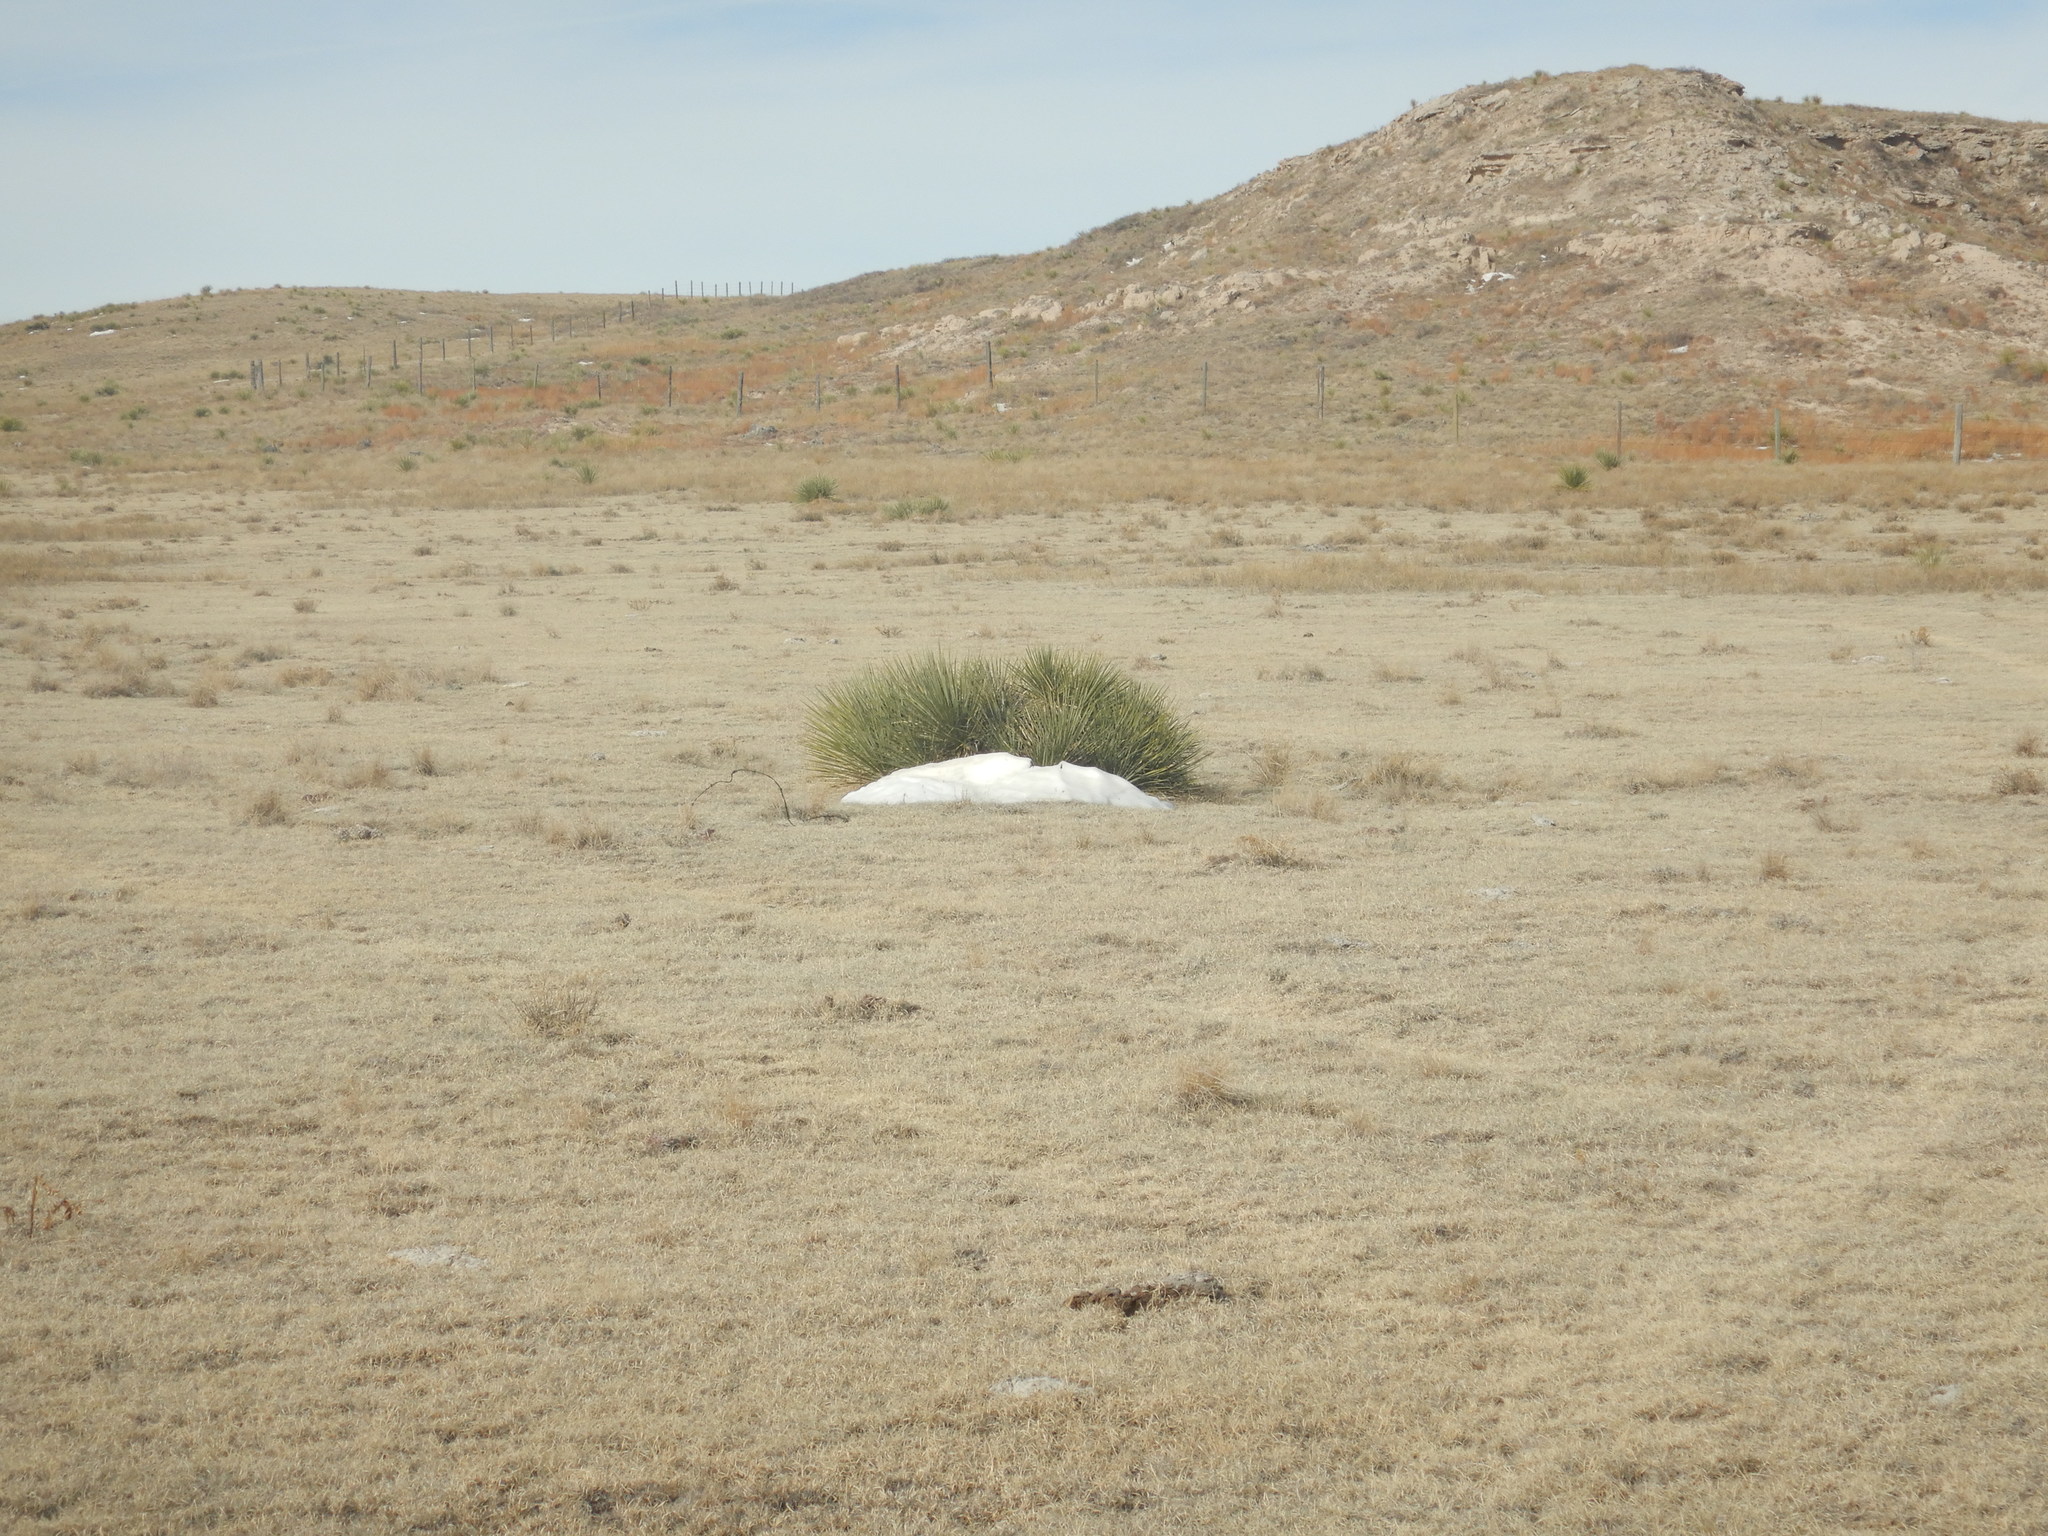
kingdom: Plantae
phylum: Tracheophyta
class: Liliopsida
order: Asparagales
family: Asparagaceae
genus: Yucca
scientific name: Yucca glauca
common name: Great plains yucca
